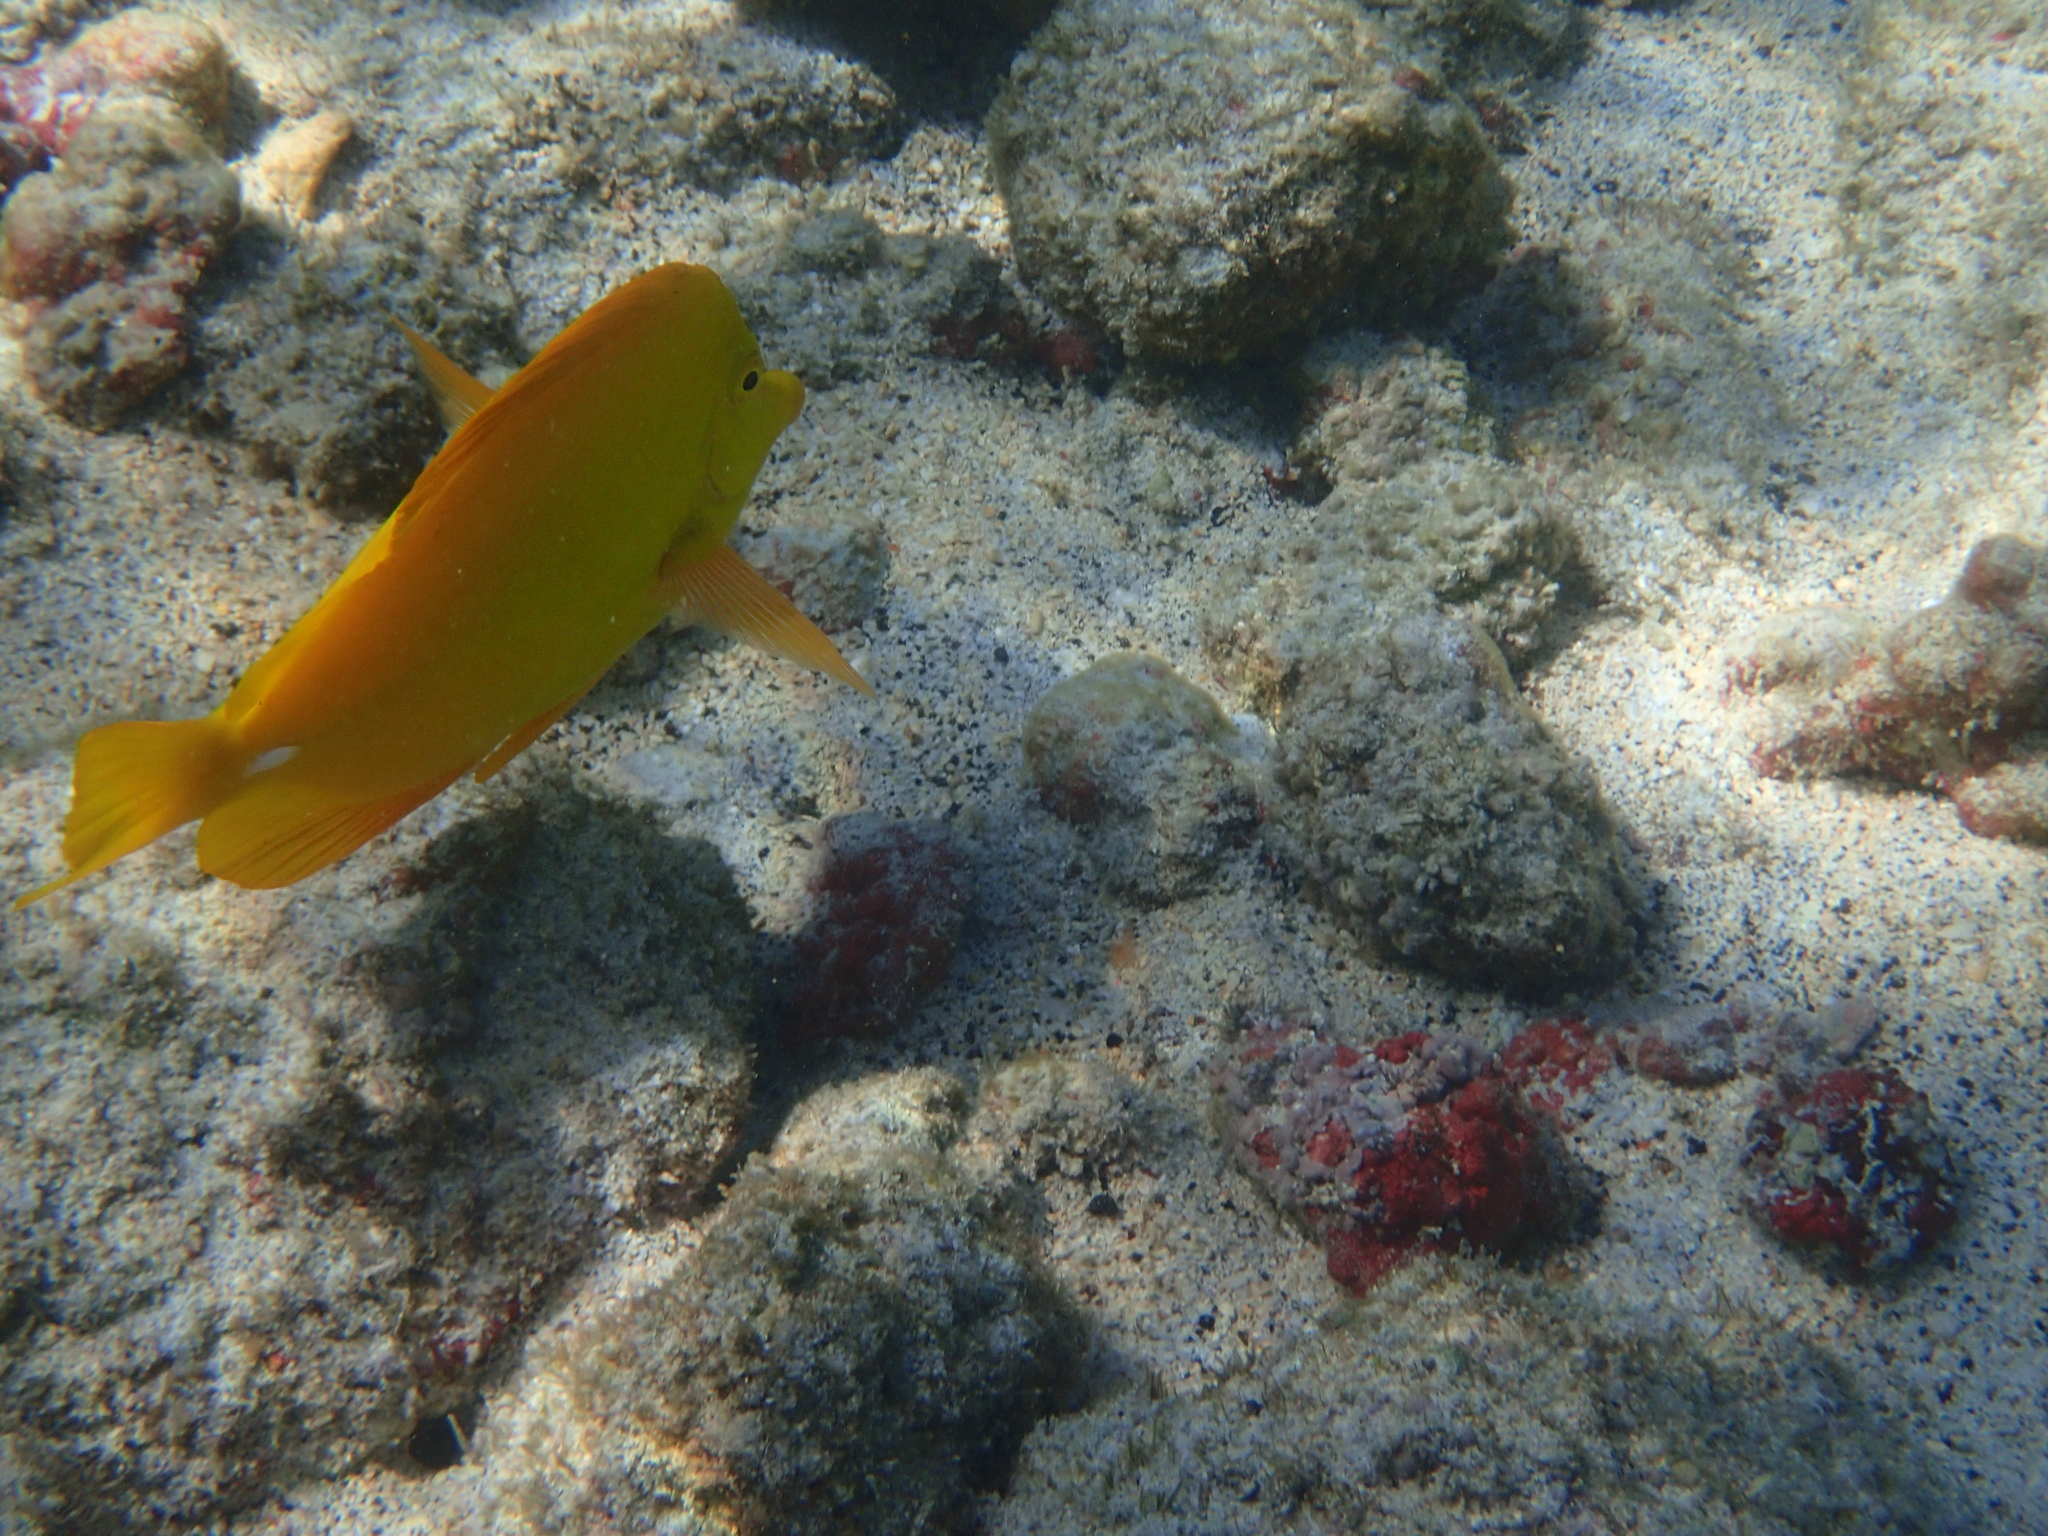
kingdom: Animalia
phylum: Chordata
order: Perciformes
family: Acanthuridae
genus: Zebrasoma
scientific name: Zebrasoma flavescens
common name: Yellow tang
